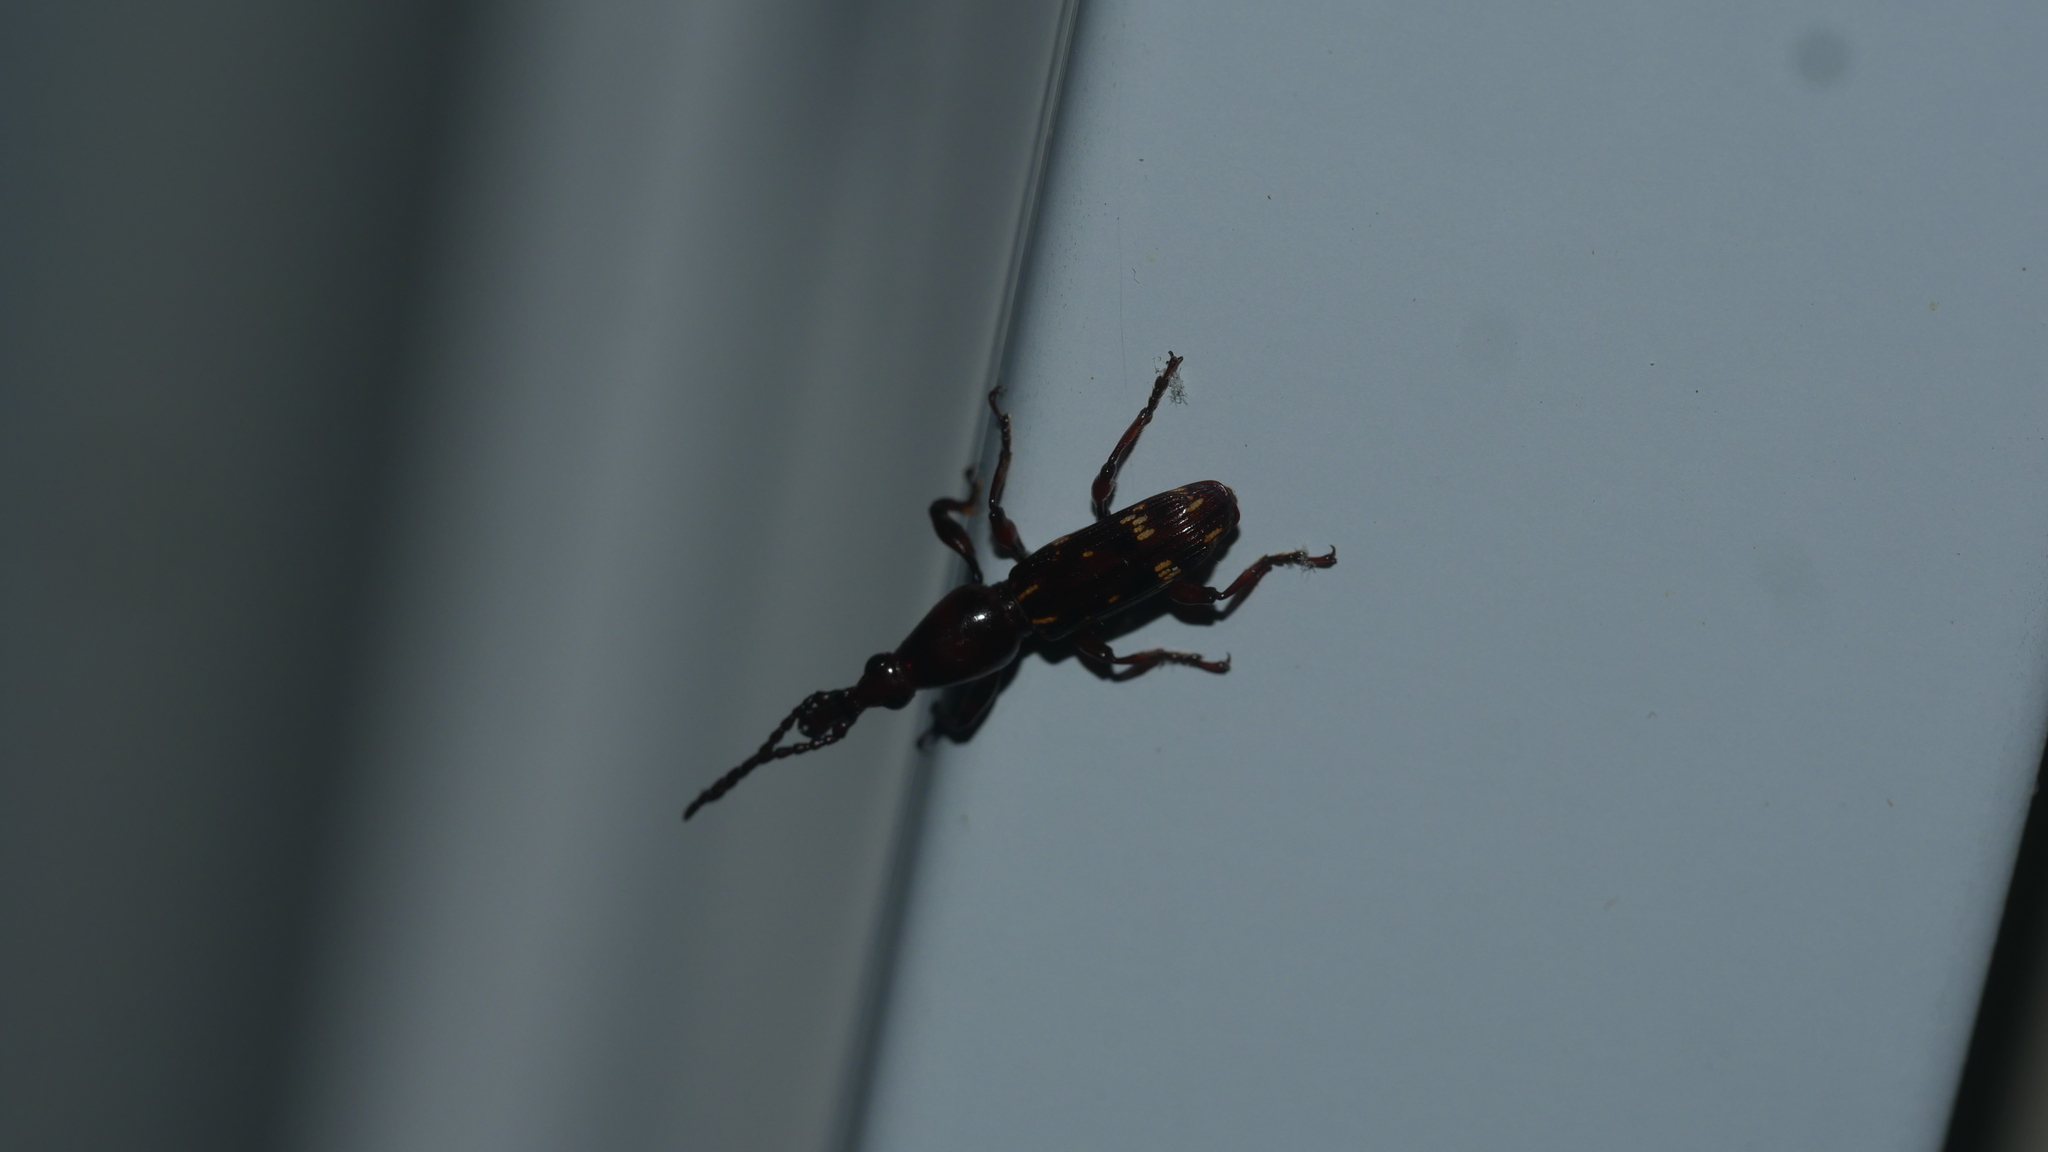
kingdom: Animalia
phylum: Arthropoda
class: Insecta
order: Coleoptera
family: Brentidae
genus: Arrenodes
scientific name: Arrenodes minutus
